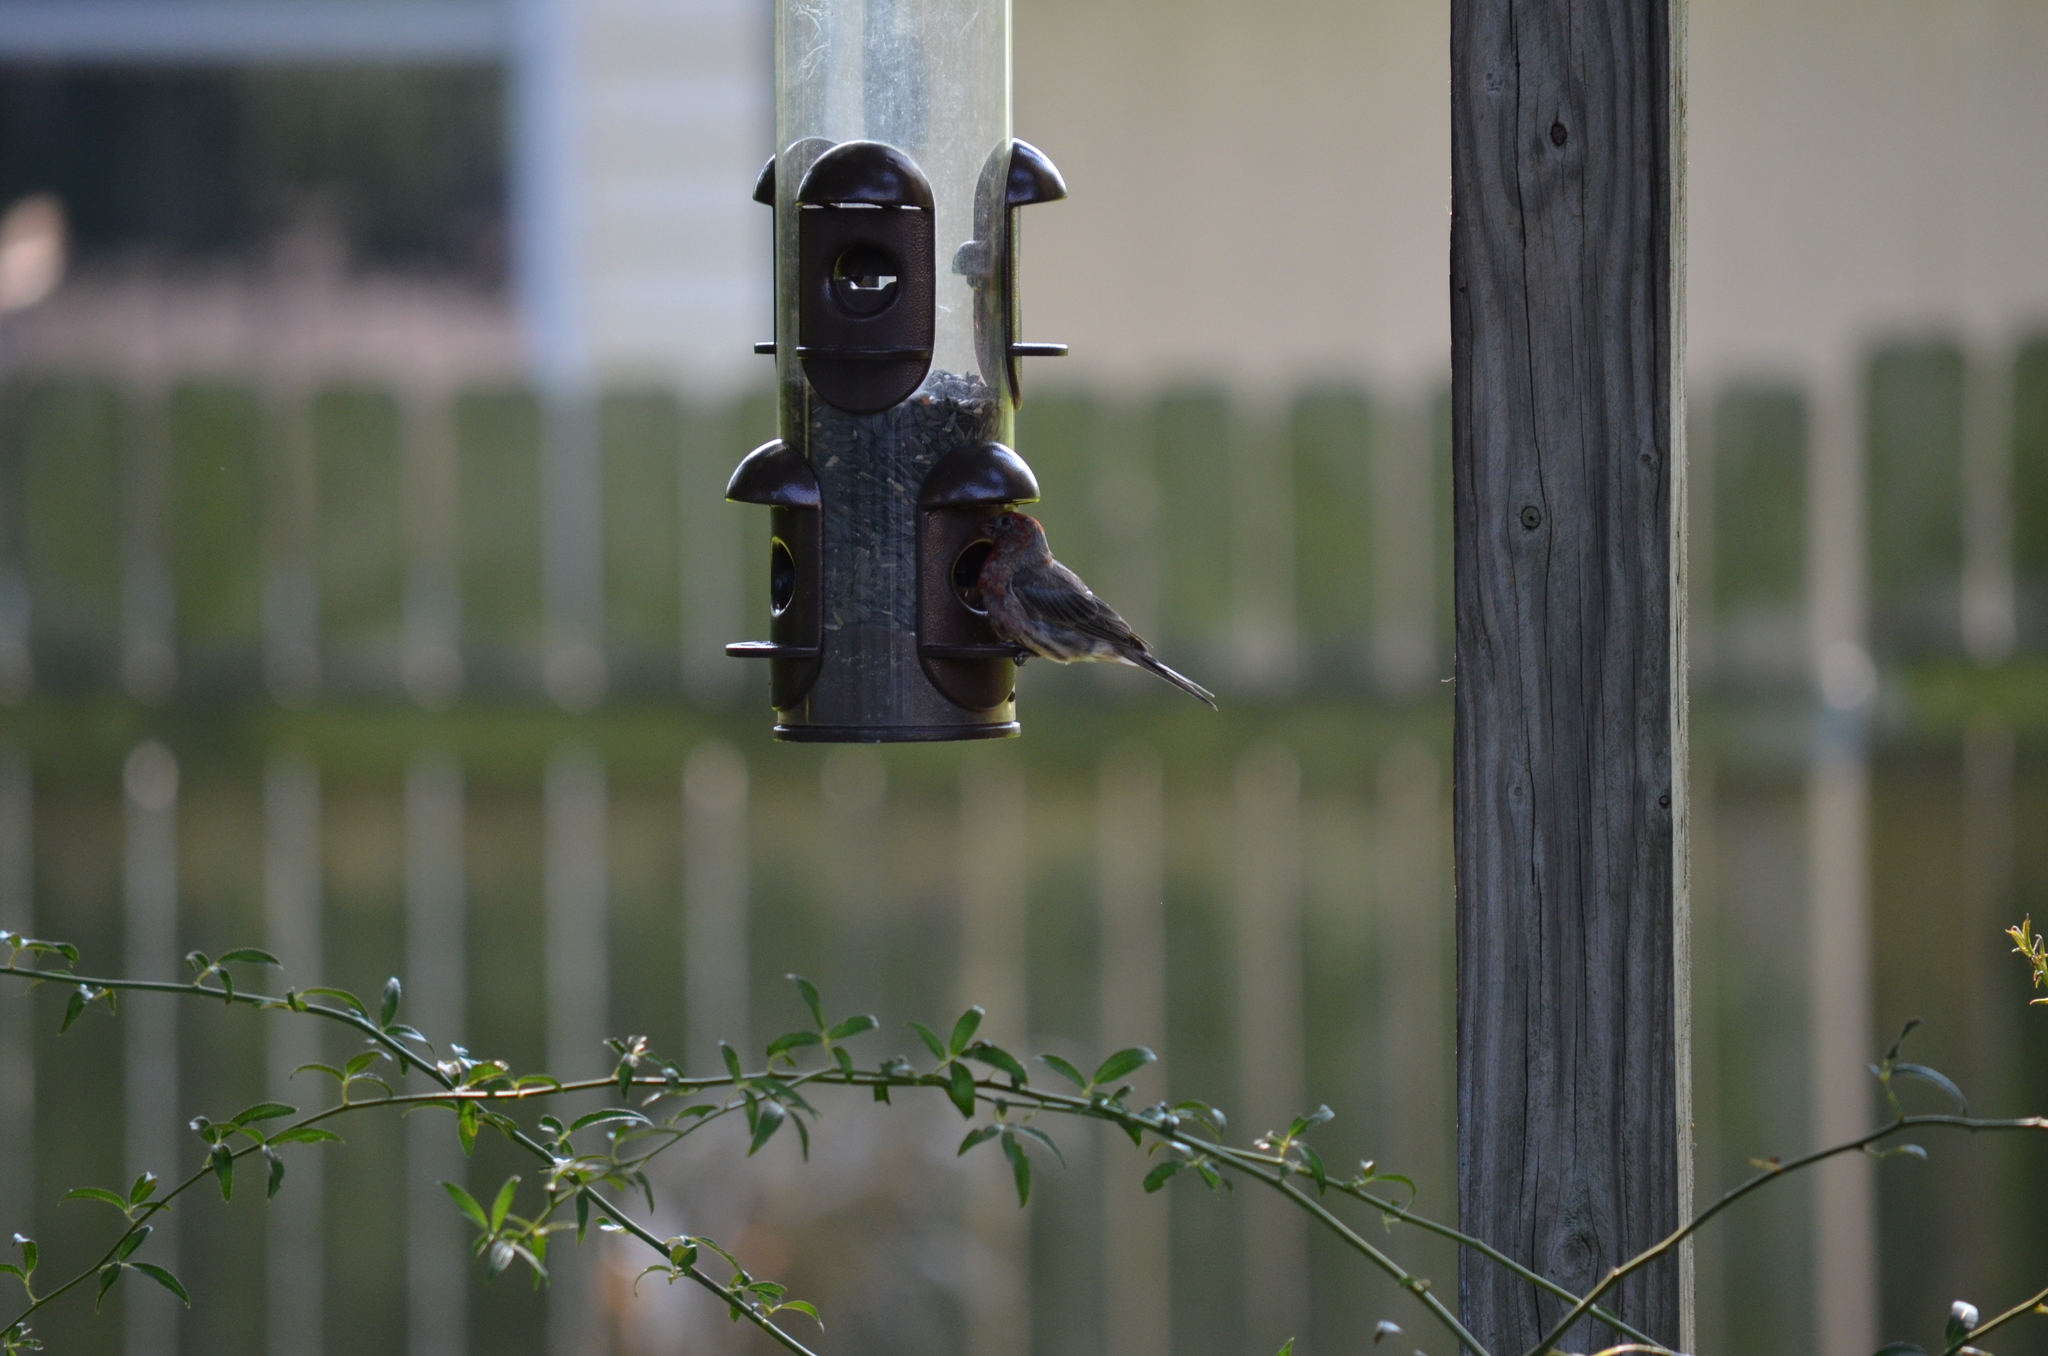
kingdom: Animalia
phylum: Chordata
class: Aves
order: Passeriformes
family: Fringillidae
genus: Haemorhous
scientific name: Haemorhous mexicanus
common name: House finch
